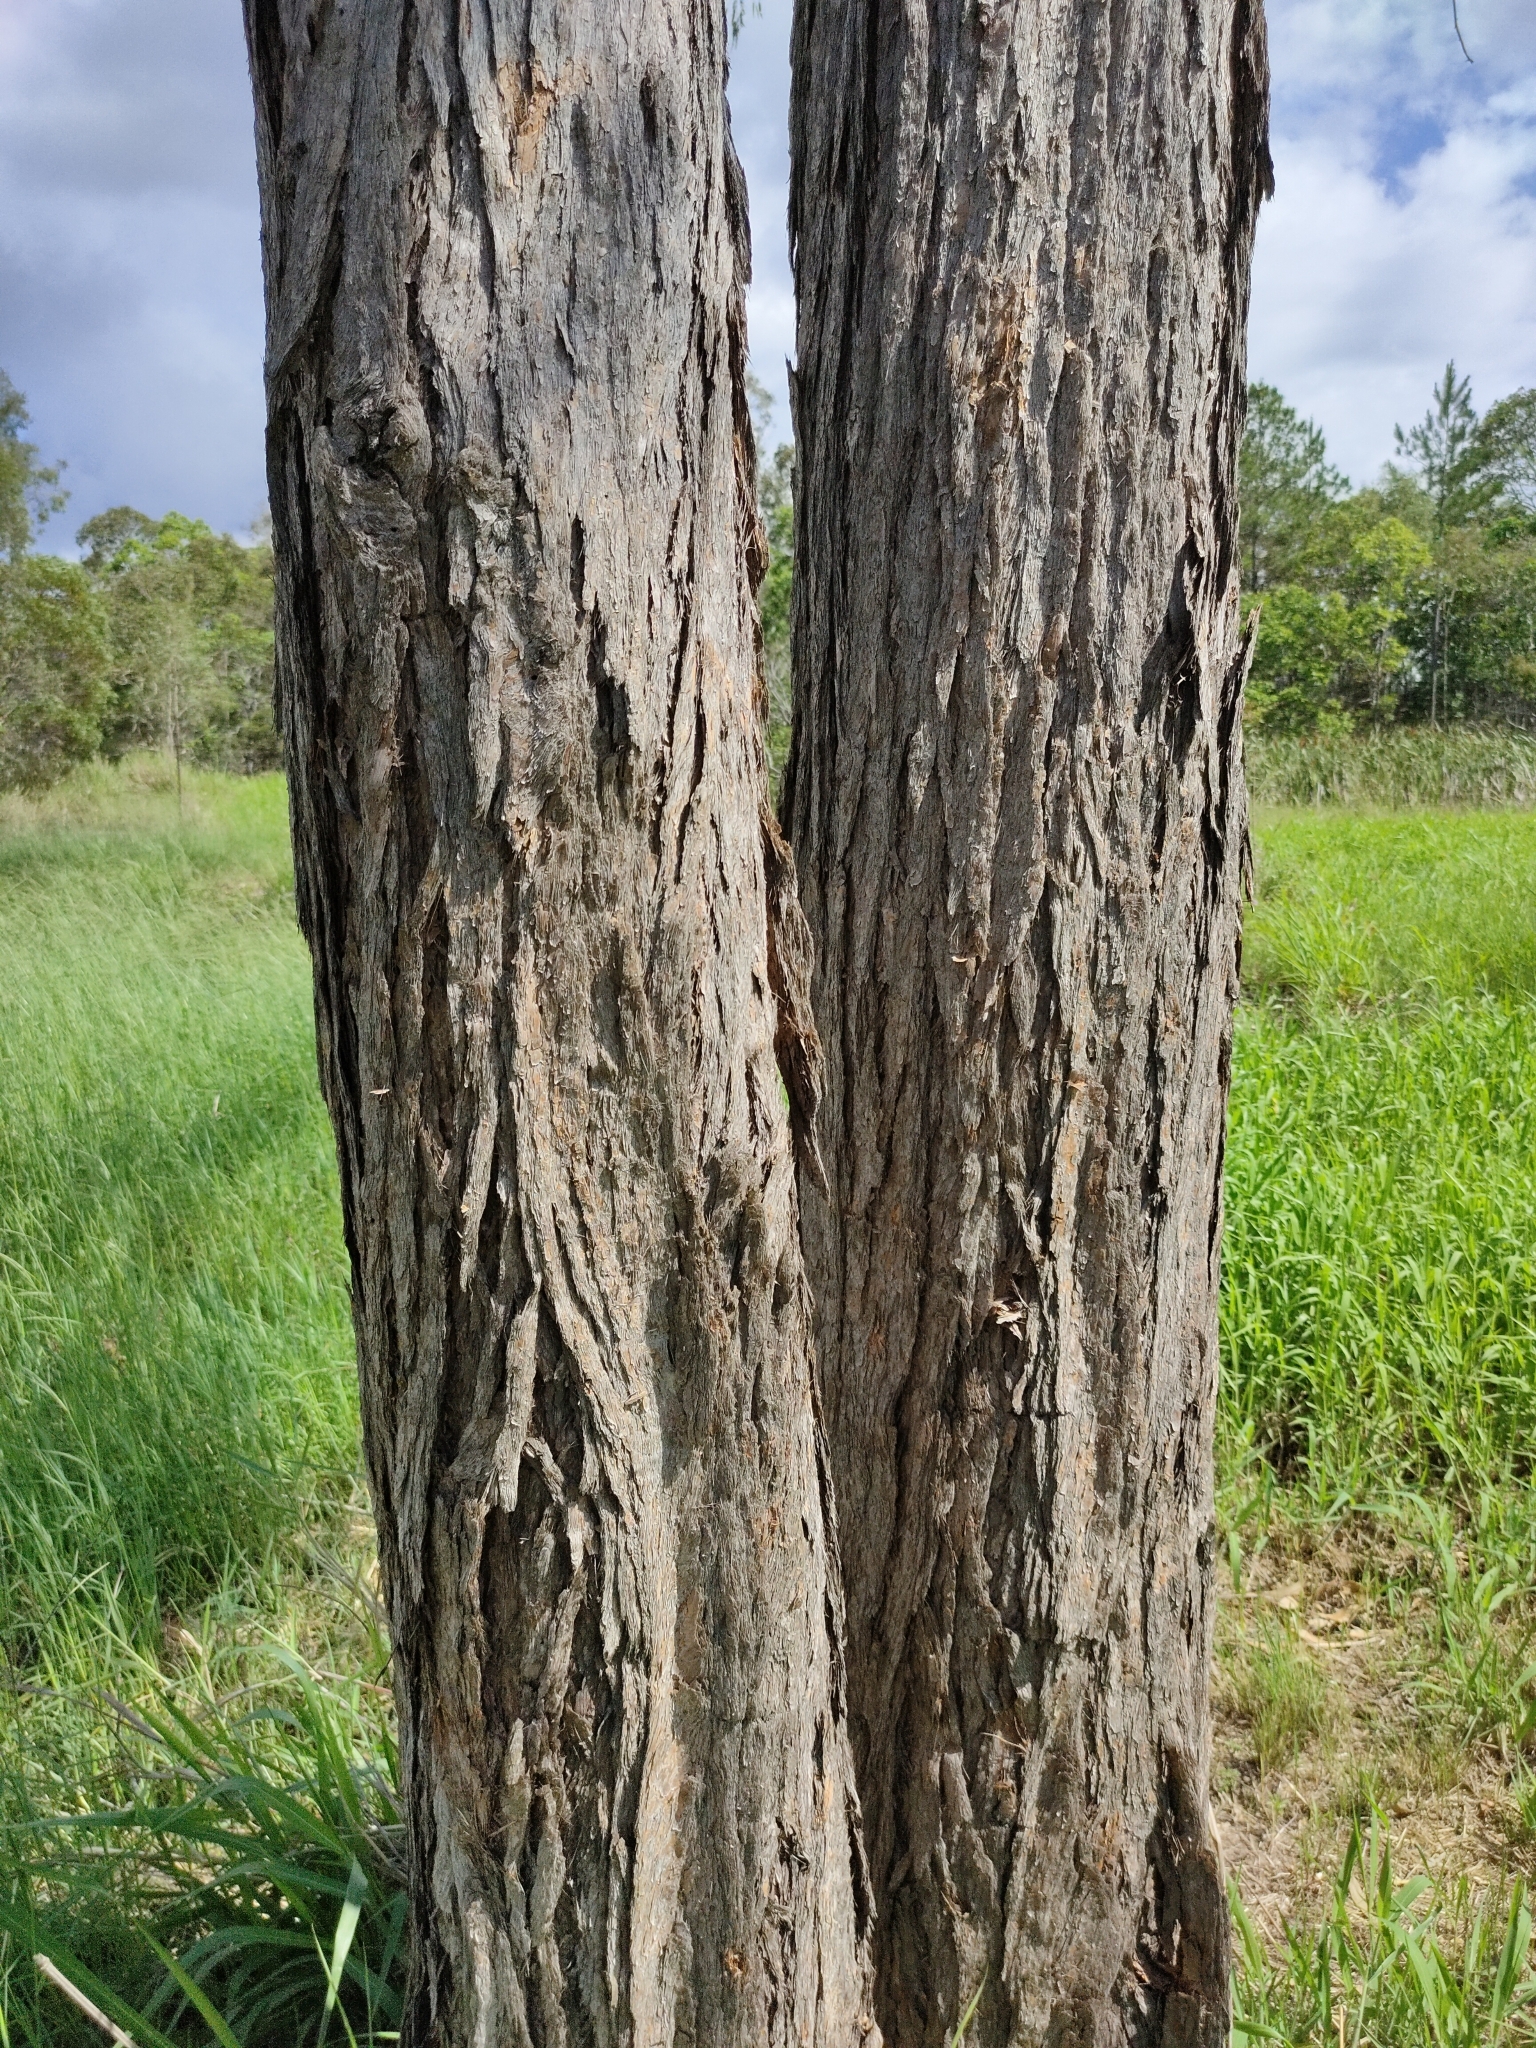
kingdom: Plantae
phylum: Tracheophyta
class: Magnoliopsida
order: Myrtales
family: Myrtaceae
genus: Lophostemon
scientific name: Lophostemon suaveolens
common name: Paperbark-mahogany
